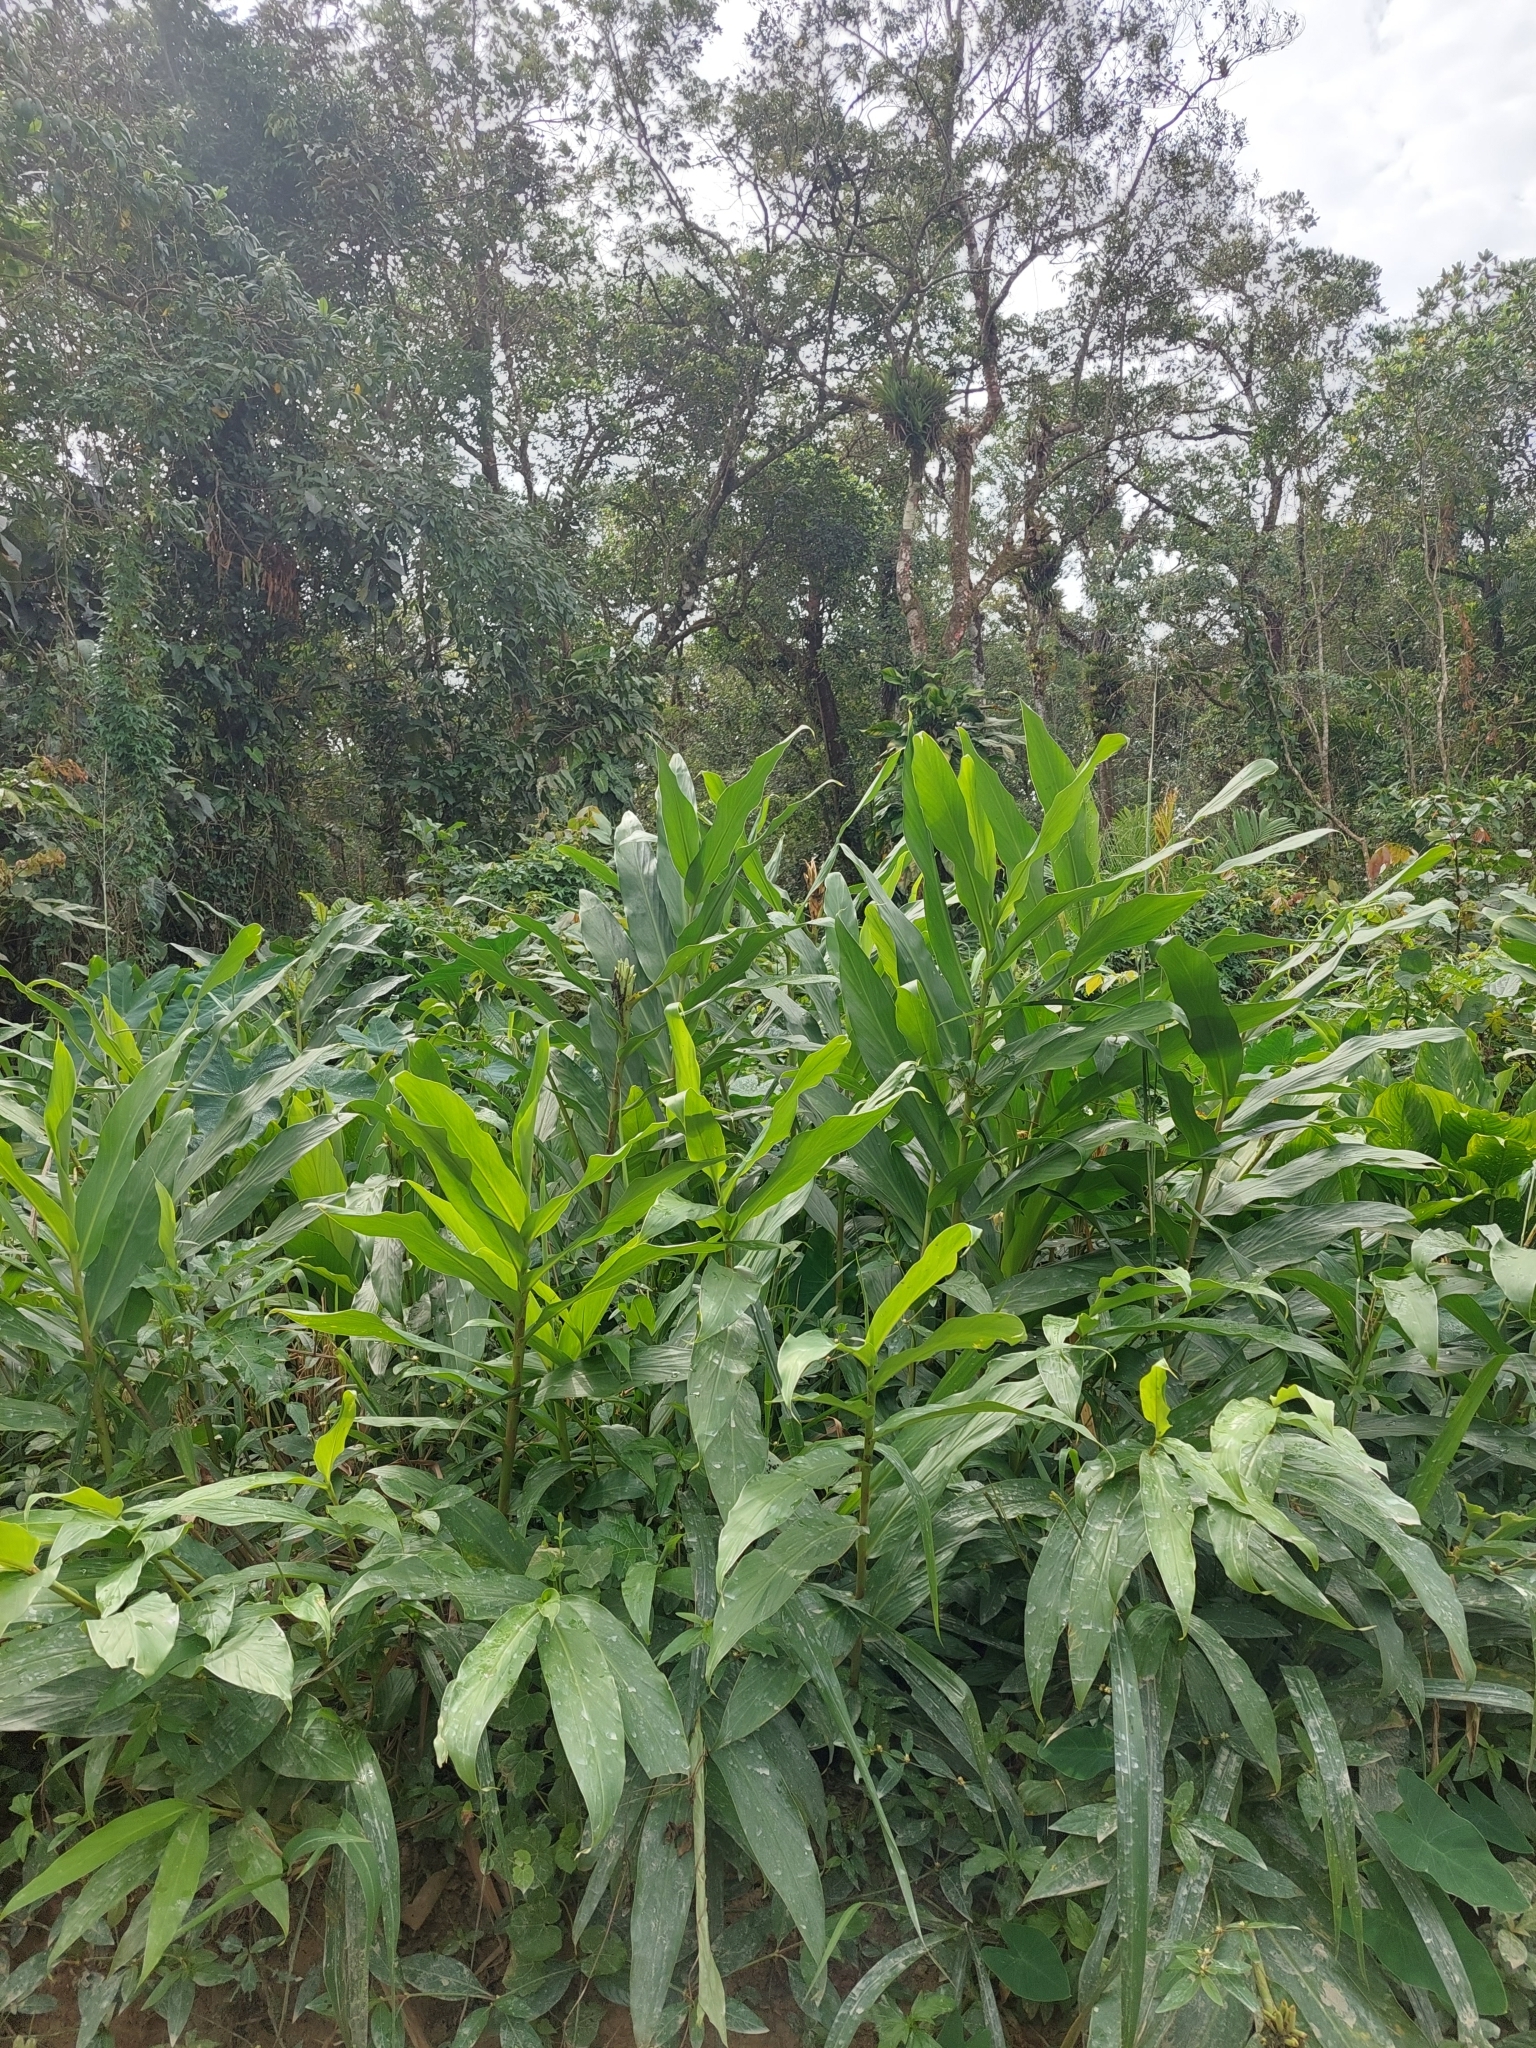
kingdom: Plantae
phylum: Tracheophyta
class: Liliopsida
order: Zingiberales
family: Zingiberaceae
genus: Hedychium
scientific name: Hedychium coronarium
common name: White garland-lily
